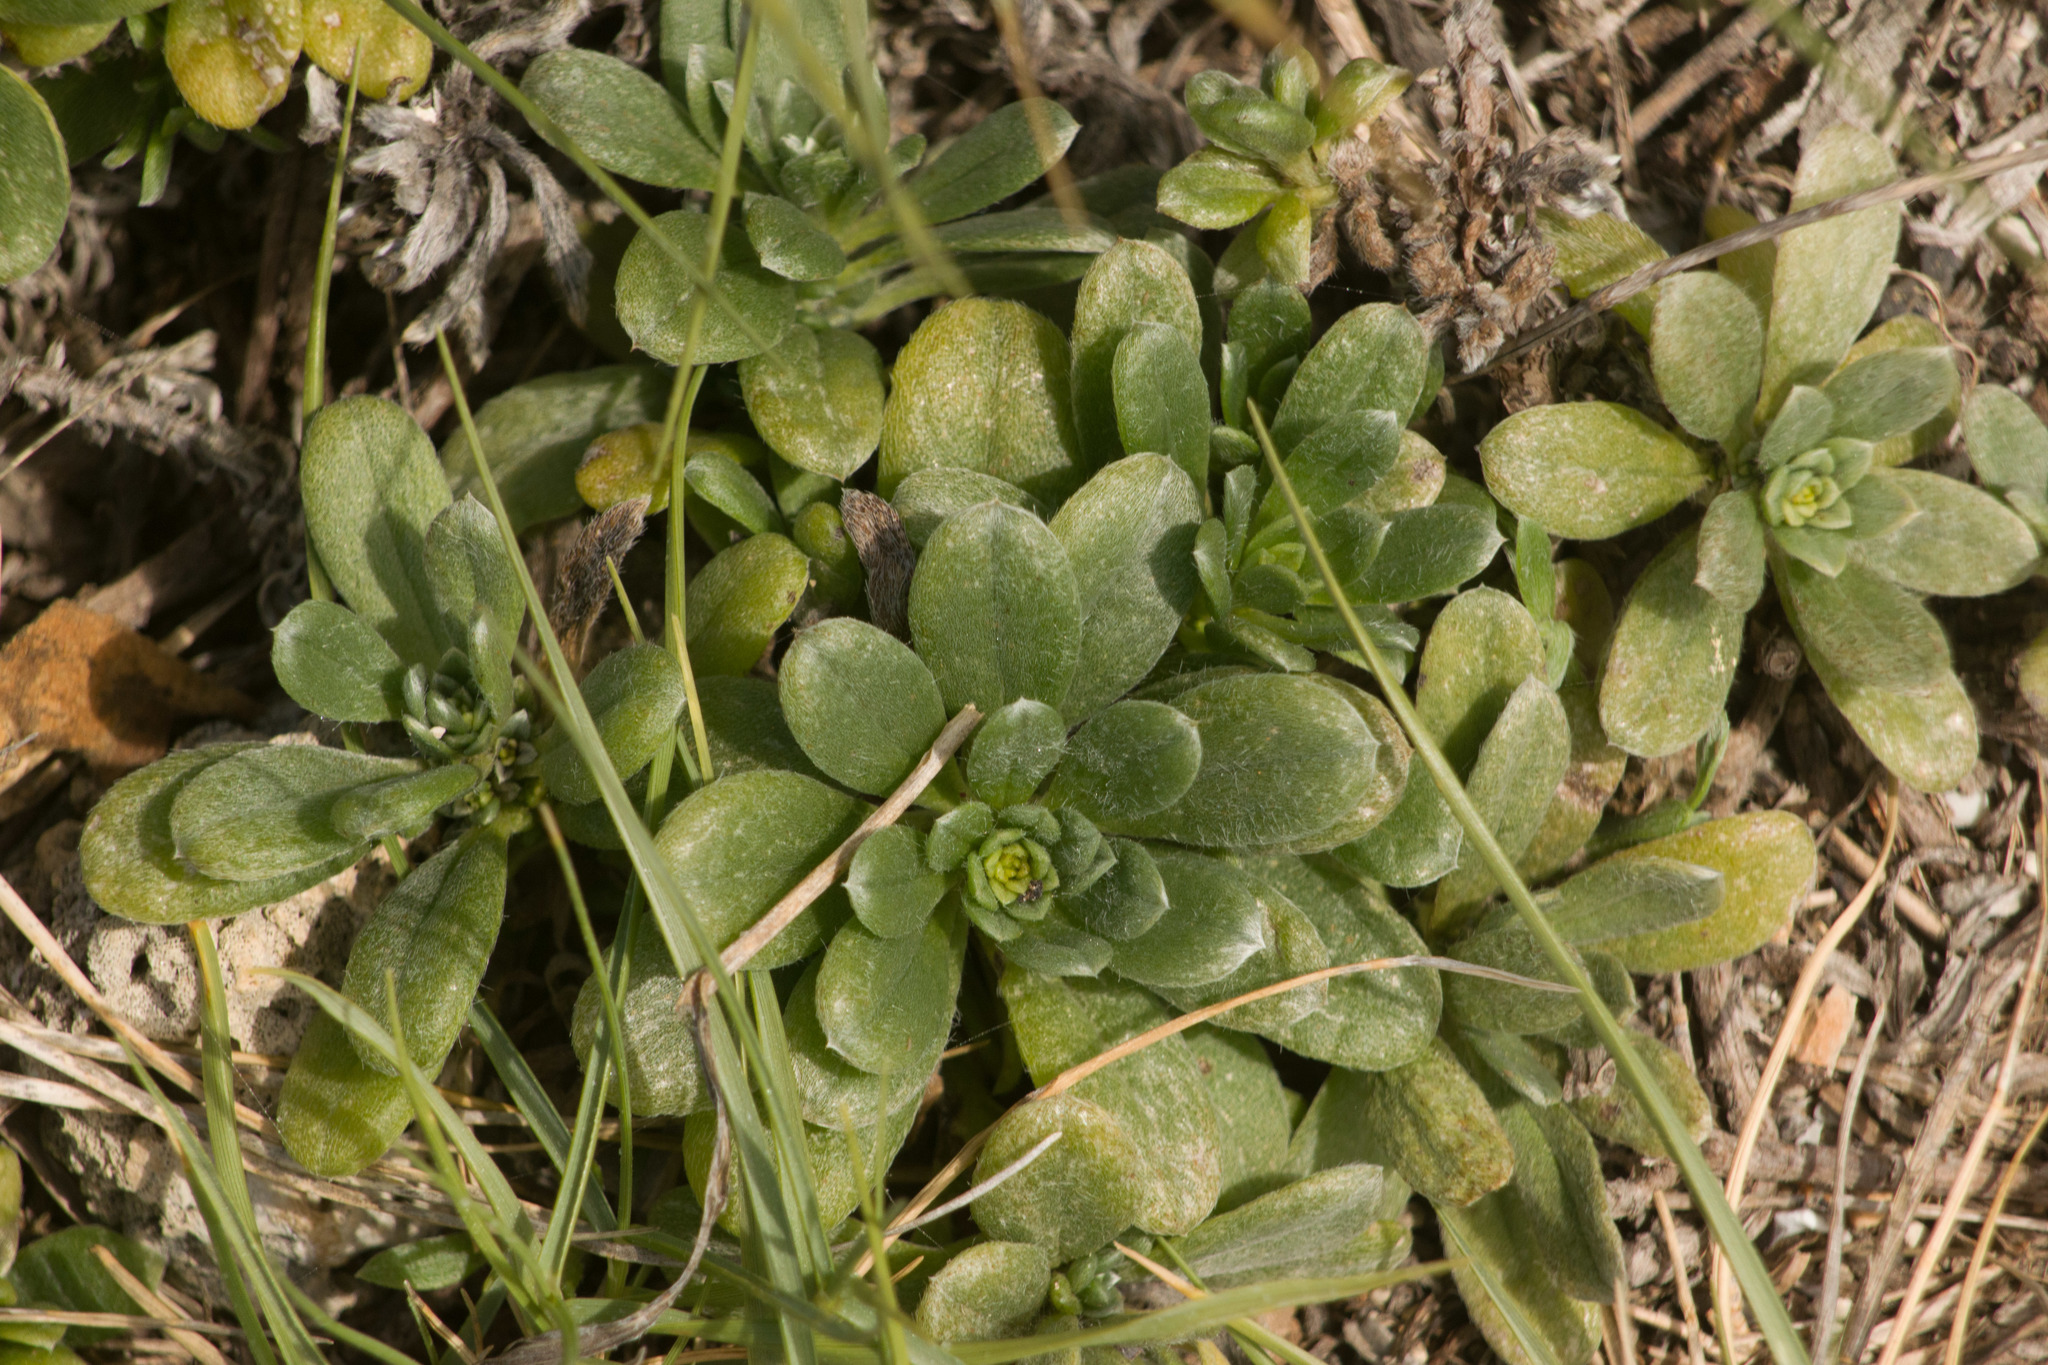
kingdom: Plantae
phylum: Tracheophyta
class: Magnoliopsida
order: Boraginales
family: Heliotropiaceae
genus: Heliotropium
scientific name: Heliotropium anomalum
